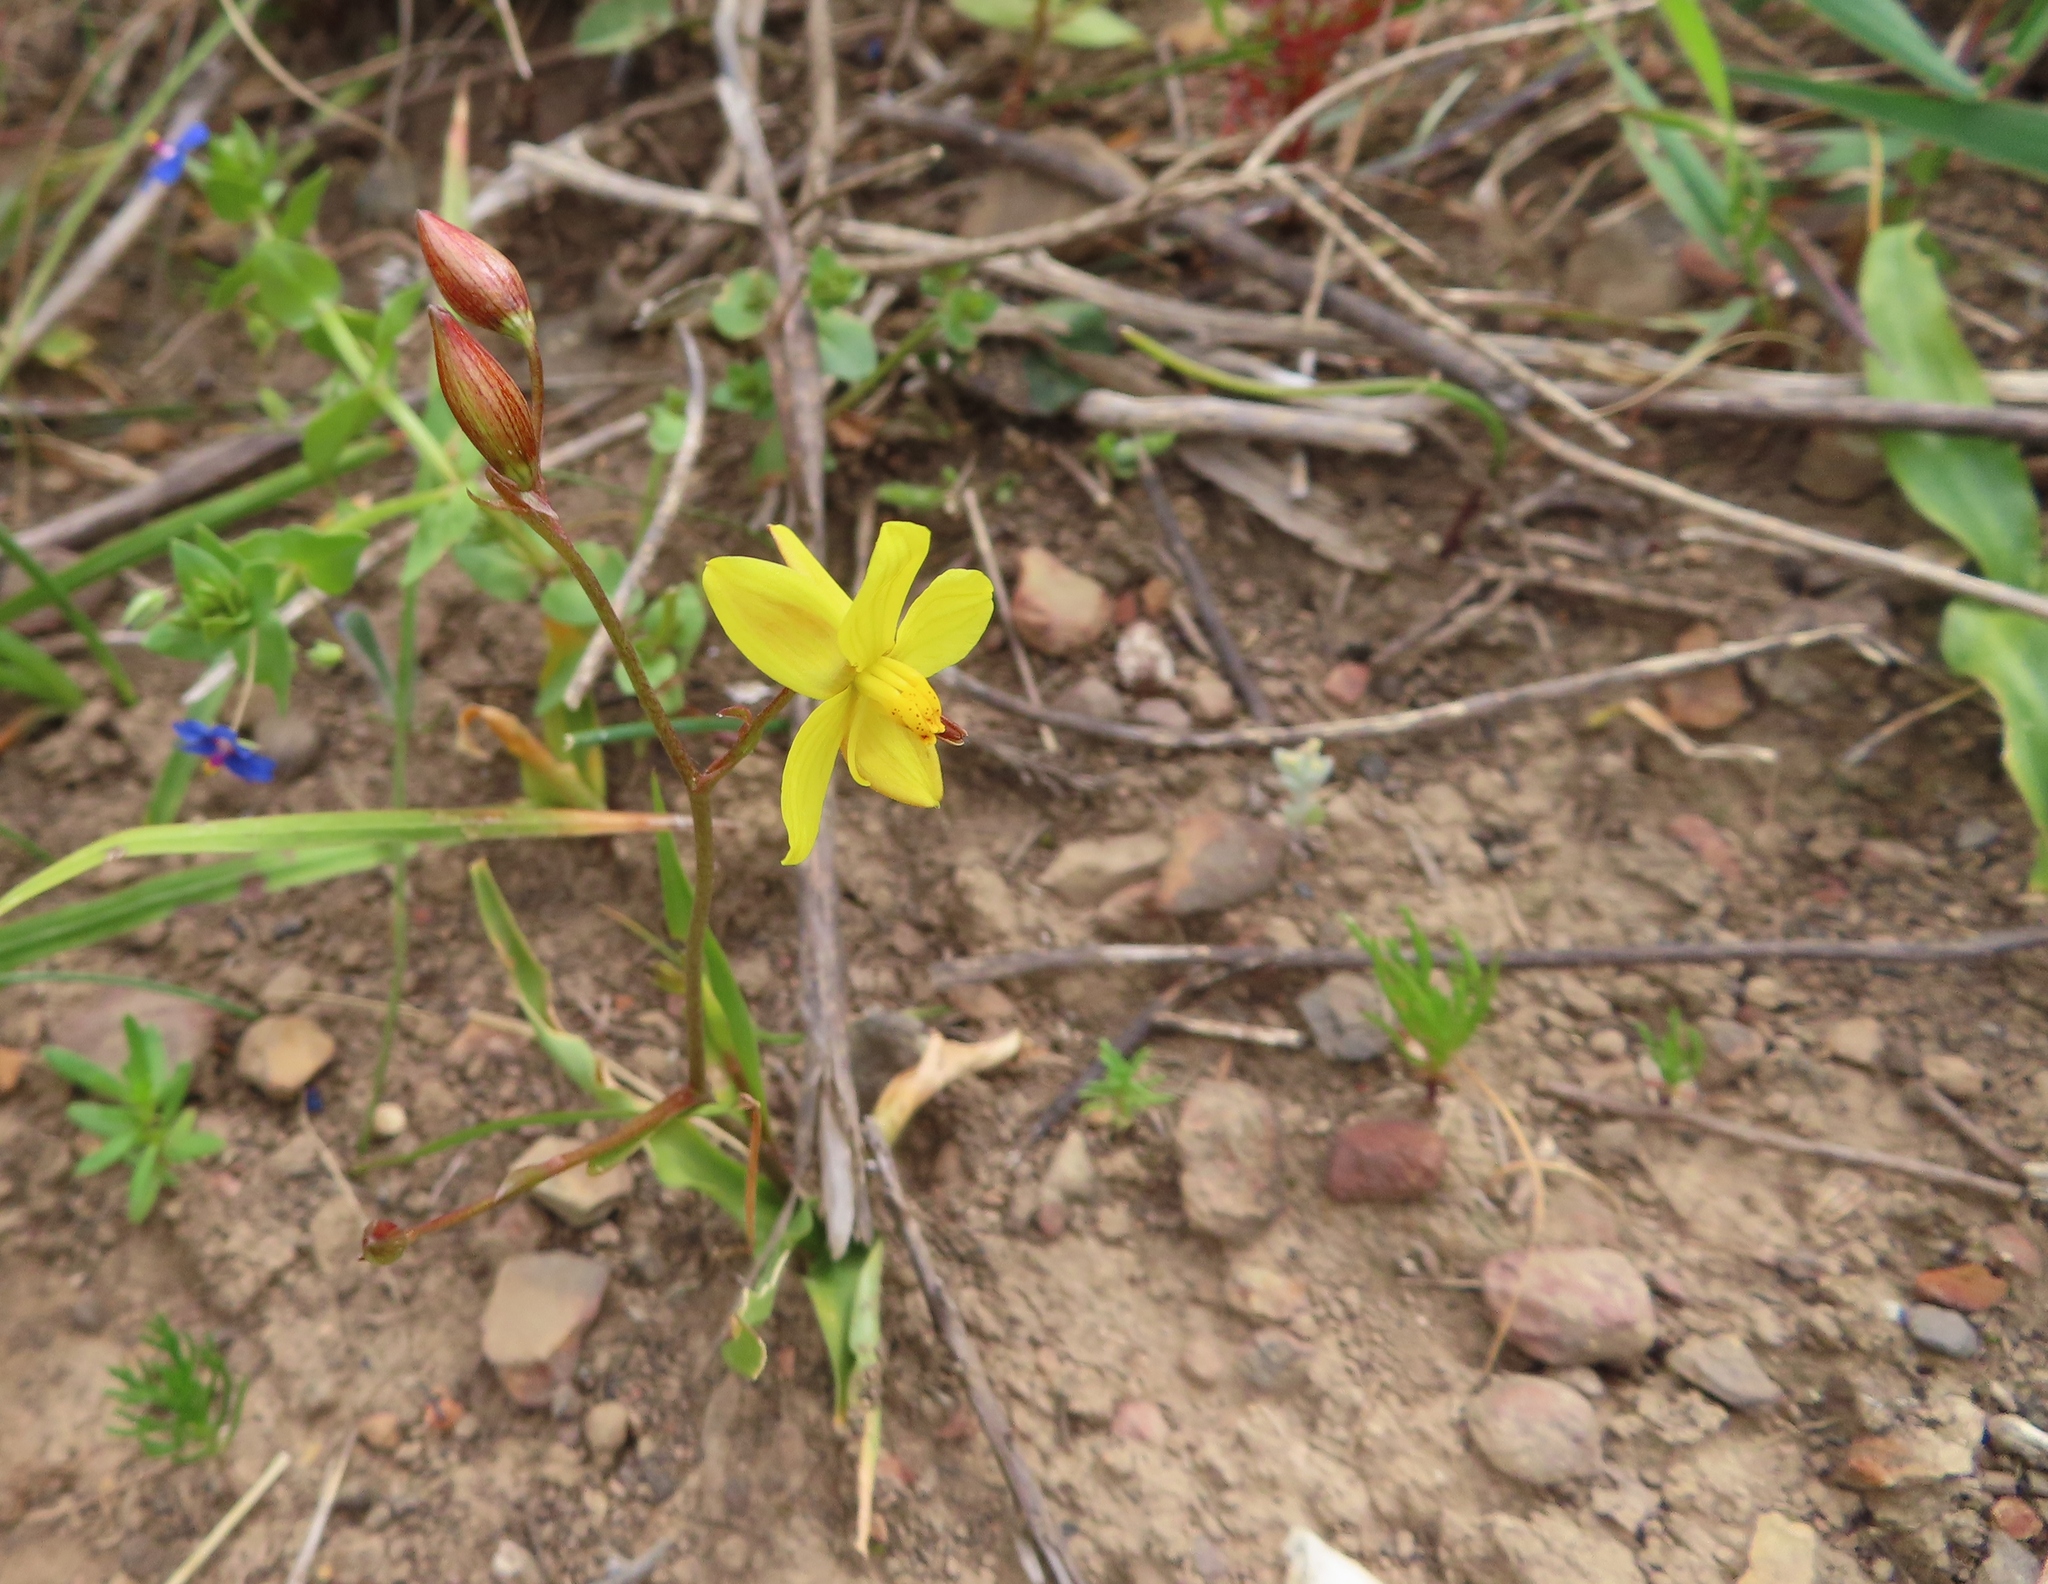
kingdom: Plantae
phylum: Tracheophyta
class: Liliopsida
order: Asparagales
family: Tecophilaeaceae
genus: Cyanella
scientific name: Cyanella lutea
